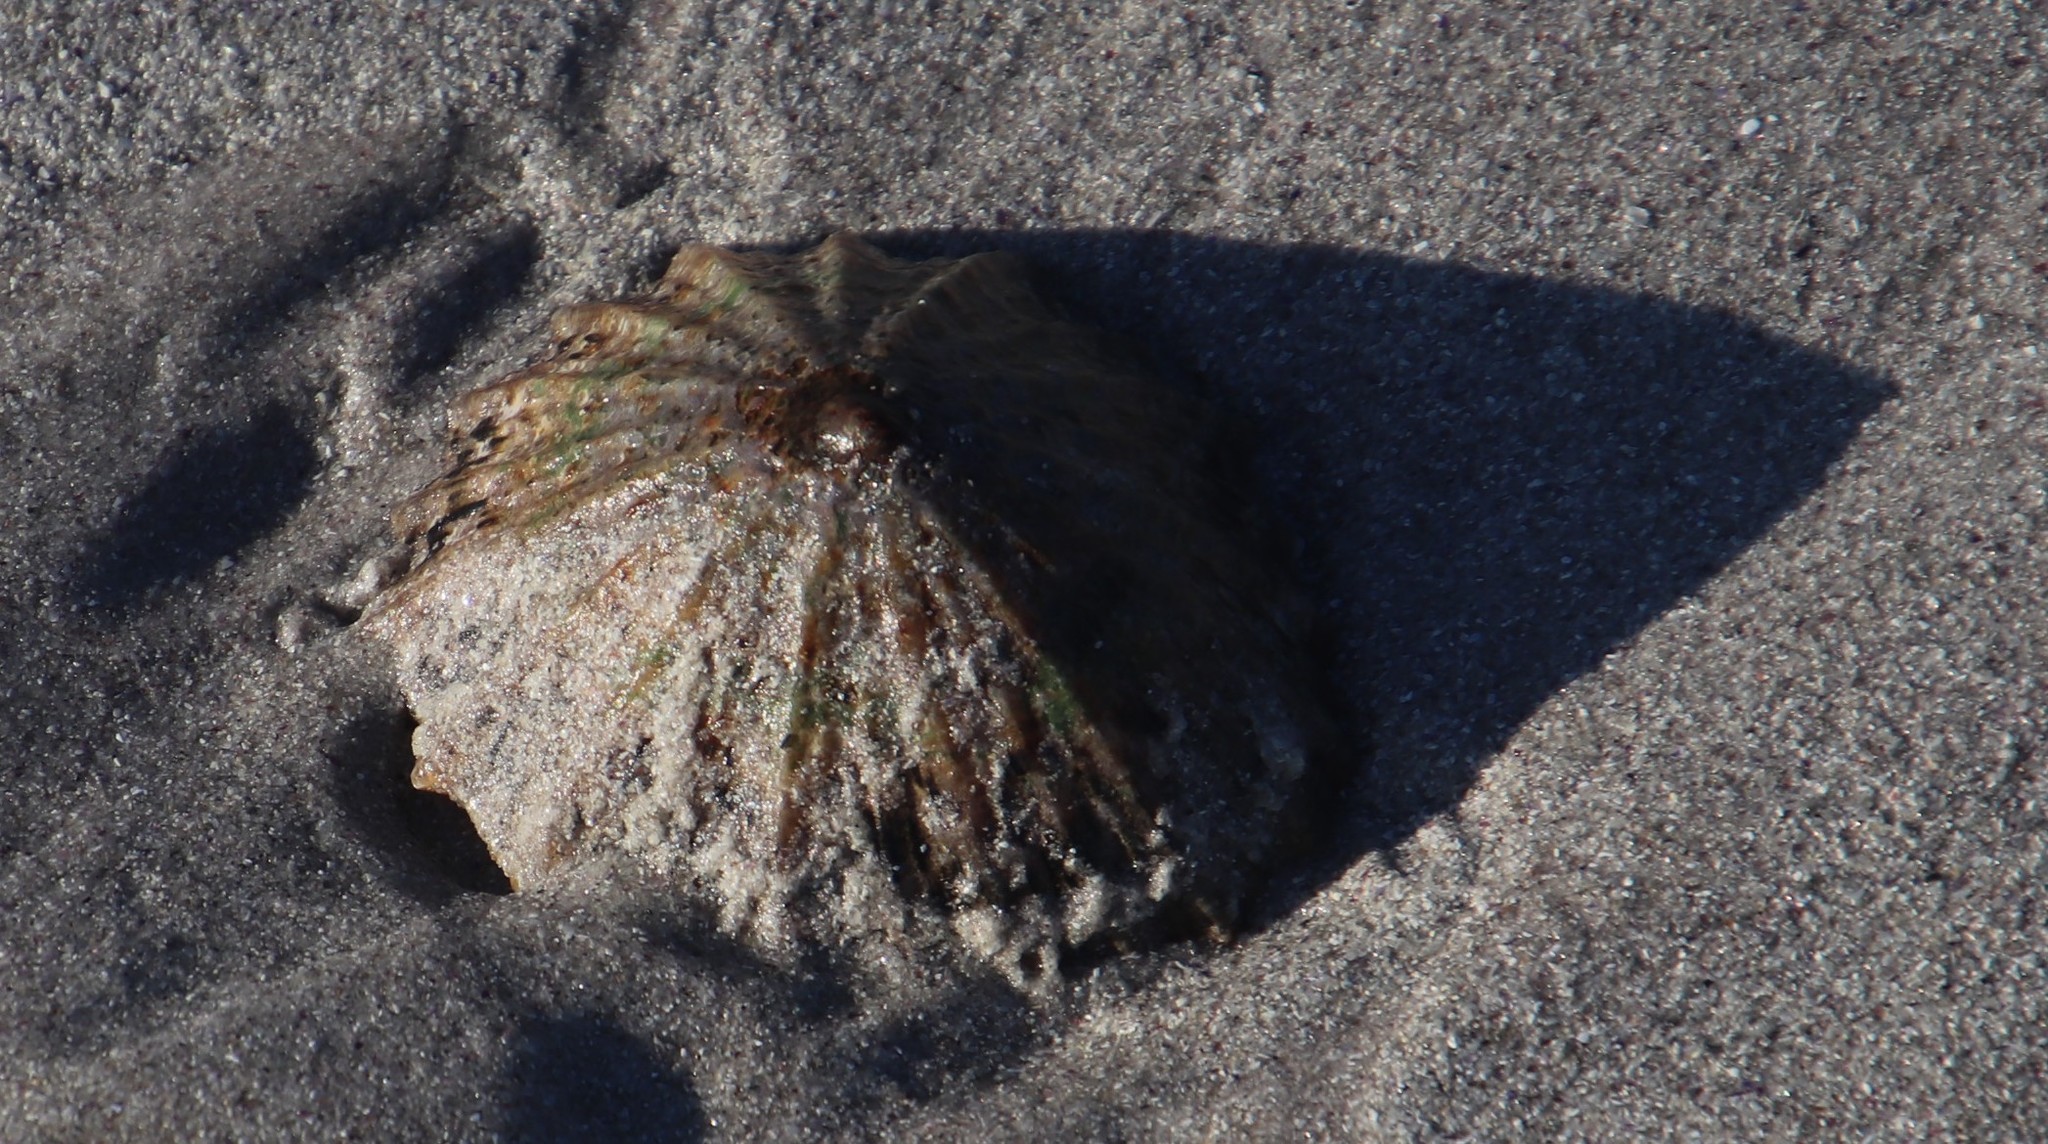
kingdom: Animalia
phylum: Mollusca
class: Gastropoda
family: Patellidae
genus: Cymbula
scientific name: Cymbula granatina
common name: Granite limpet
